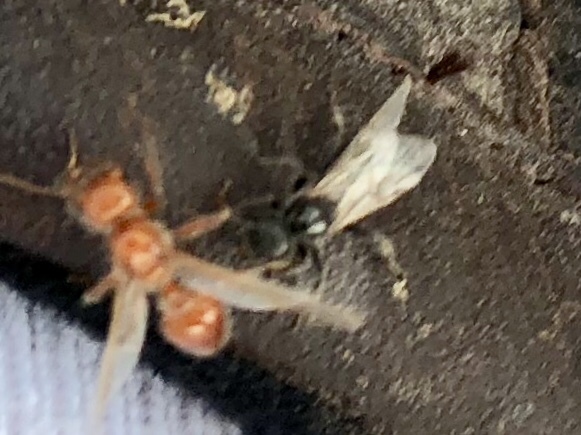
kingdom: Animalia
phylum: Arthropoda
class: Insecta
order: Hymenoptera
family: Formicidae
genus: Pogonomyrmex
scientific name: Pogonomyrmex desertorum
